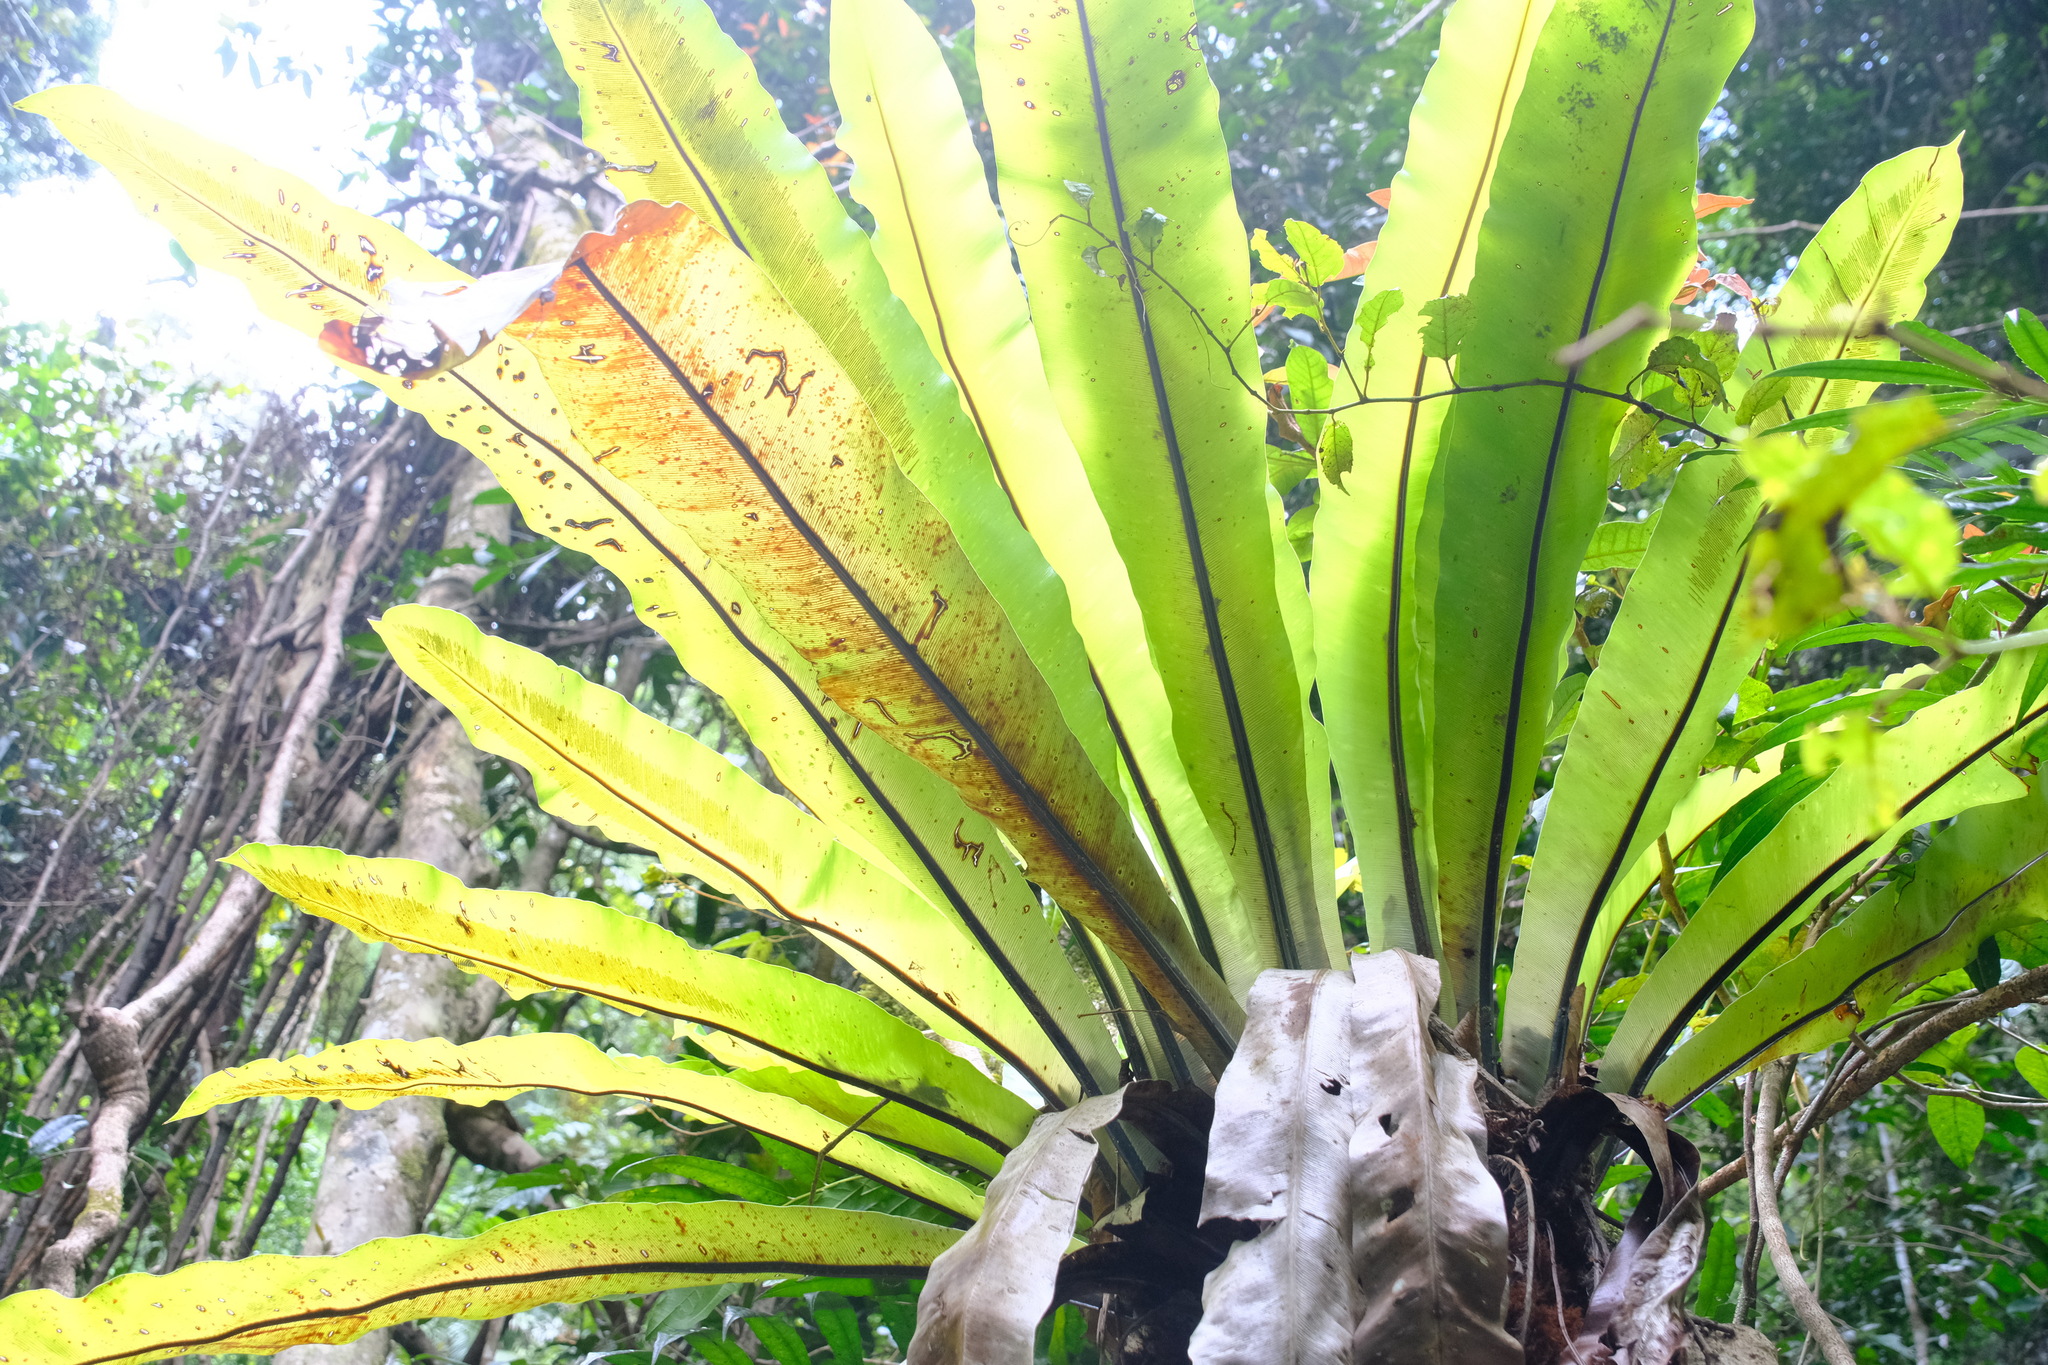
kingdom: Plantae
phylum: Tracheophyta
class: Polypodiopsida
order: Polypodiales
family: Aspleniaceae
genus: Asplenium
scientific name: Asplenium australasicum
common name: Bird's-nest fern
